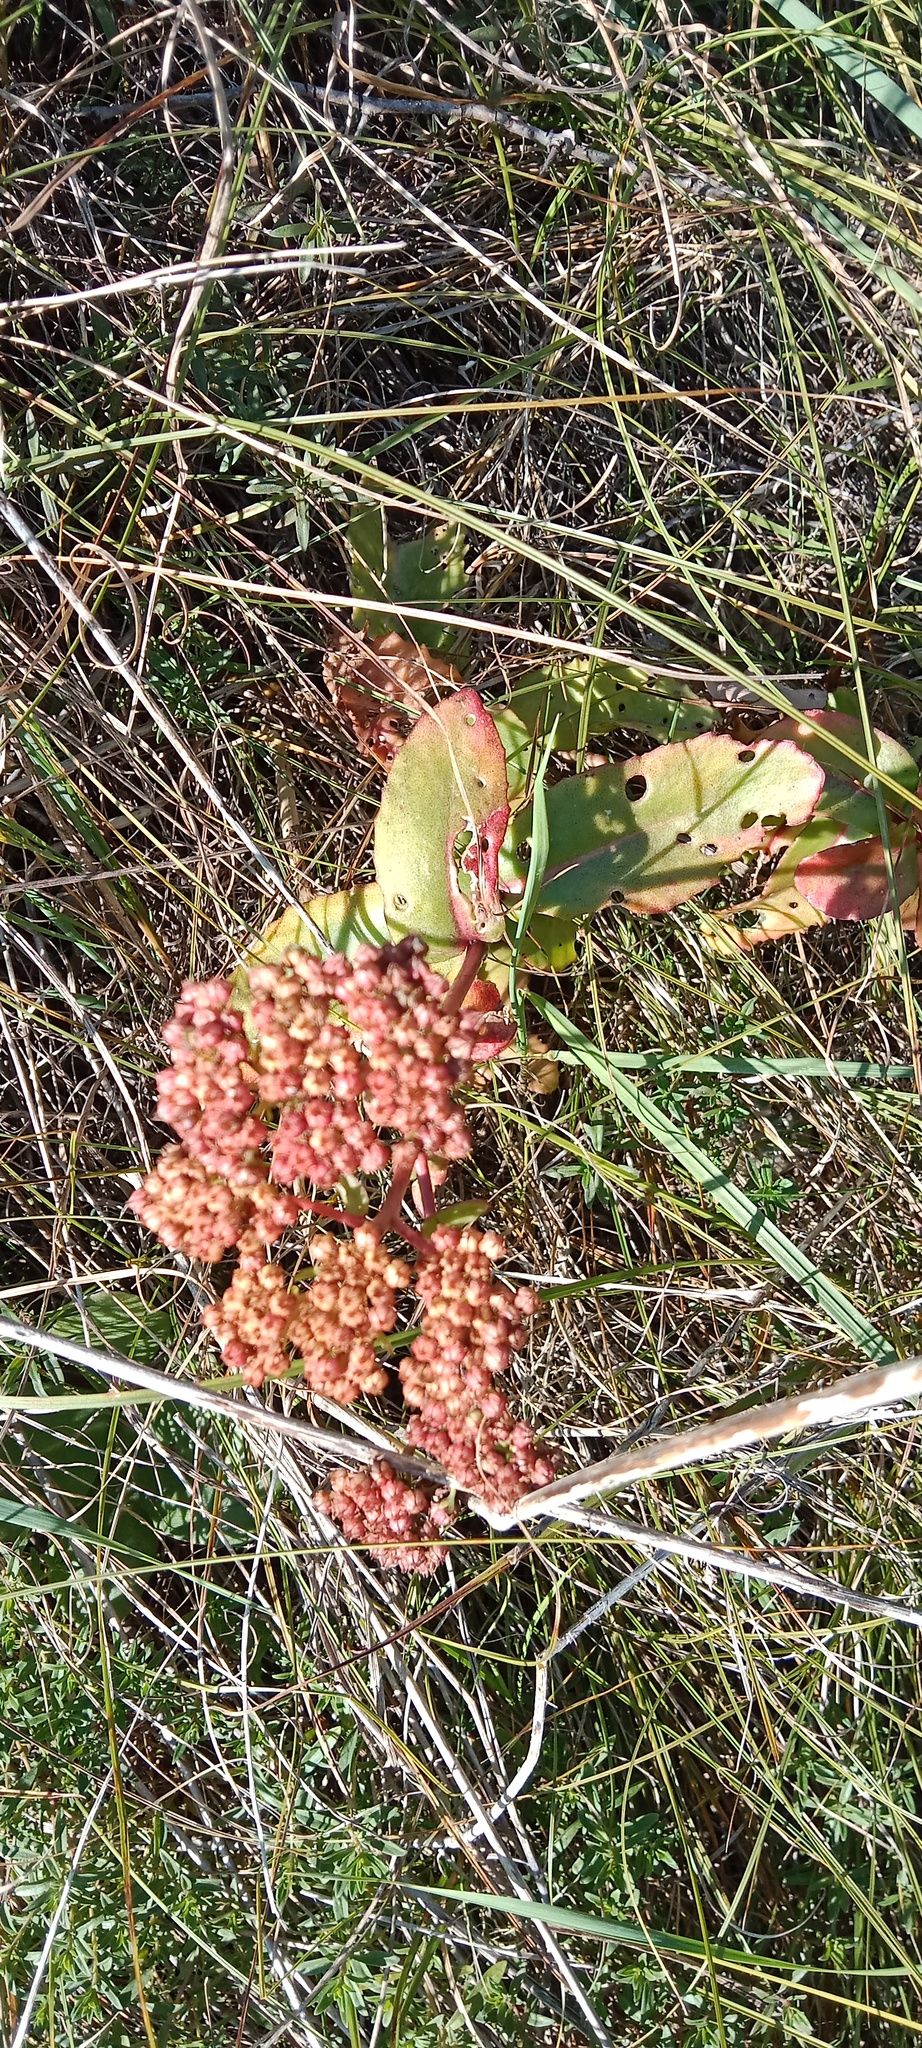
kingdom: Plantae
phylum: Tracheophyta
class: Magnoliopsida
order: Saxifragales
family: Crassulaceae
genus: Hylotelephium
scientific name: Hylotelephium maximum
